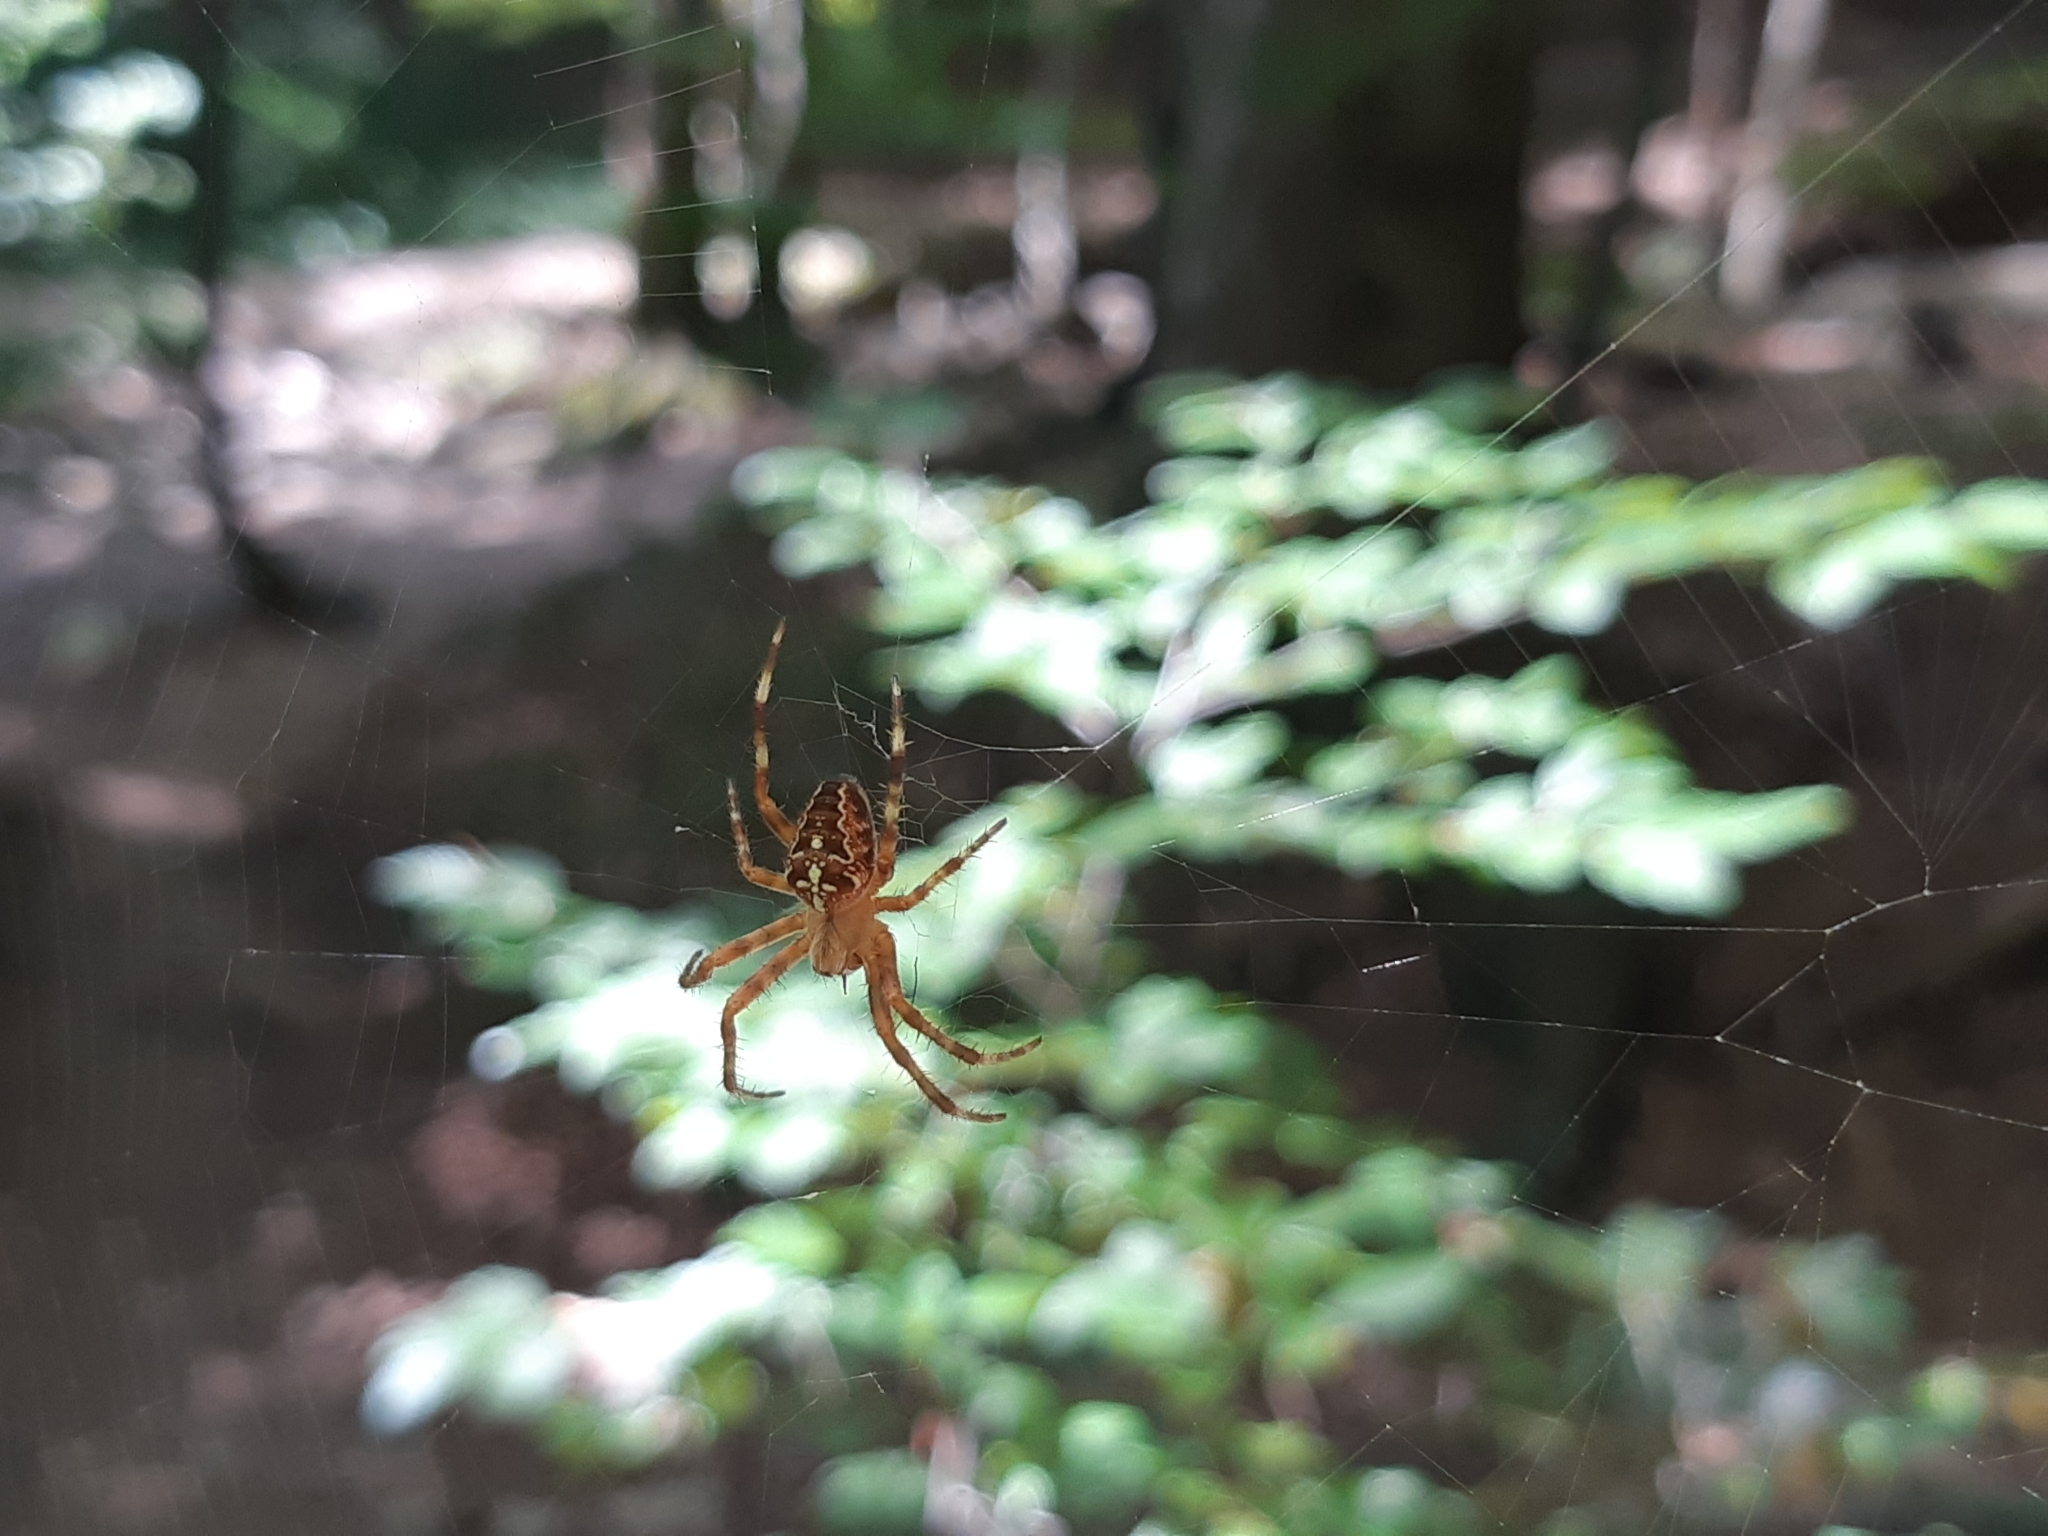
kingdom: Animalia
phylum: Arthropoda
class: Arachnida
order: Araneae
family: Araneidae
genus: Araneus
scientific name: Araneus diadematus
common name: Cross orbweaver
